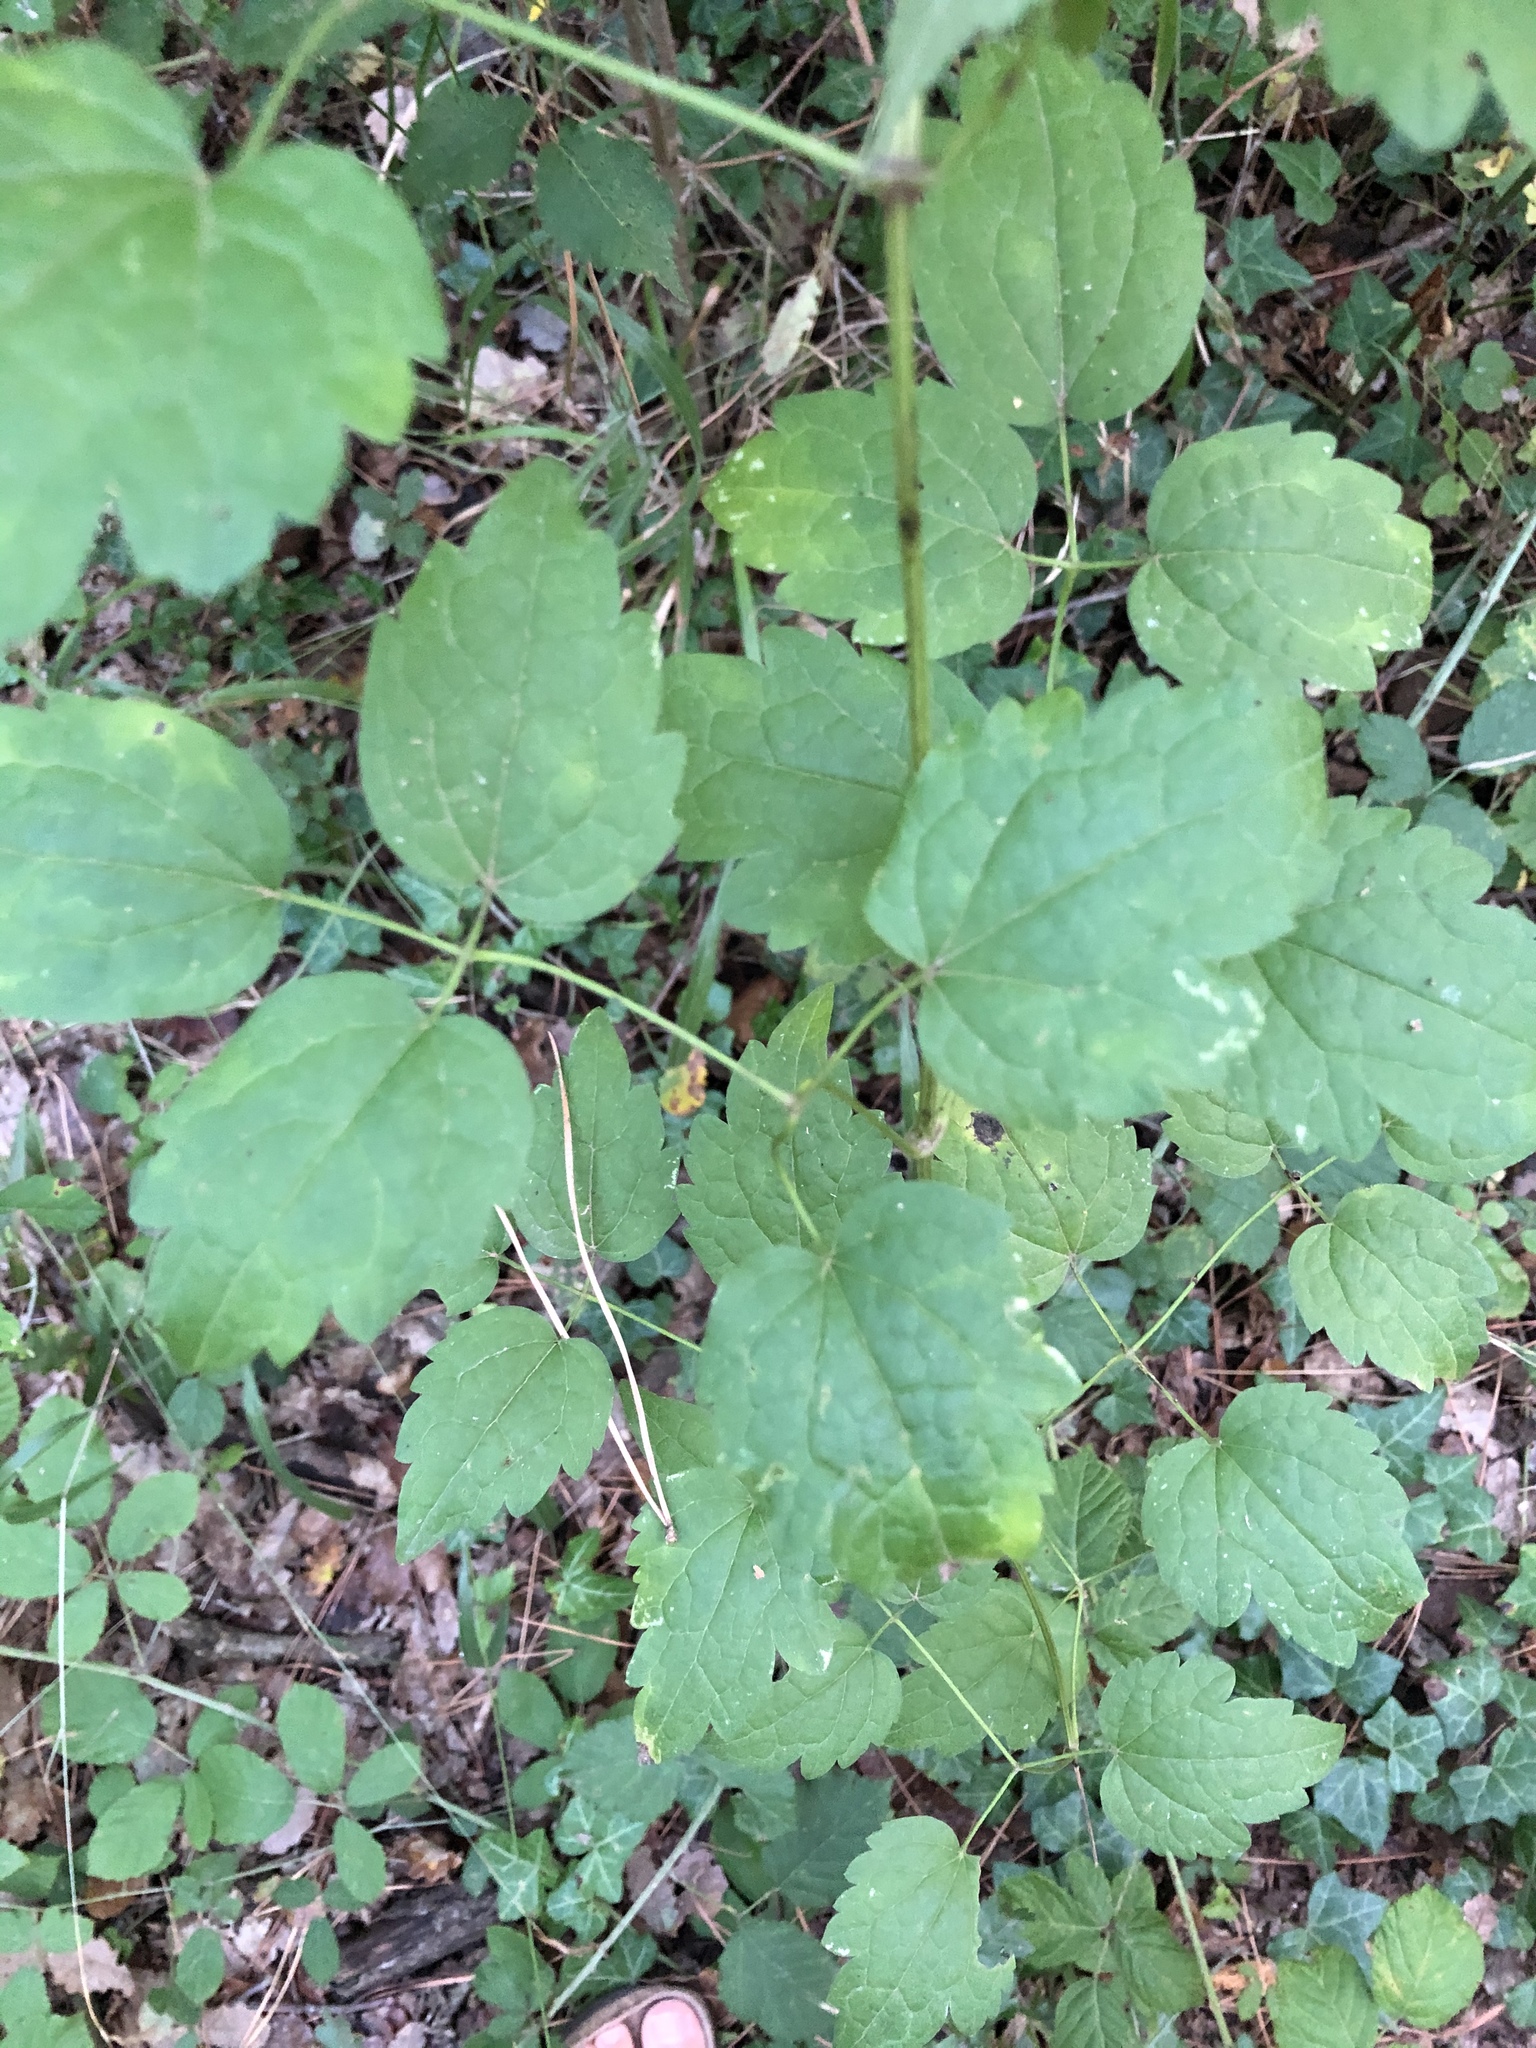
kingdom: Plantae
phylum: Tracheophyta
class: Magnoliopsida
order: Ranunculales
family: Ranunculaceae
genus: Clematis
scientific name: Clematis vitalba
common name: Evergreen clematis
